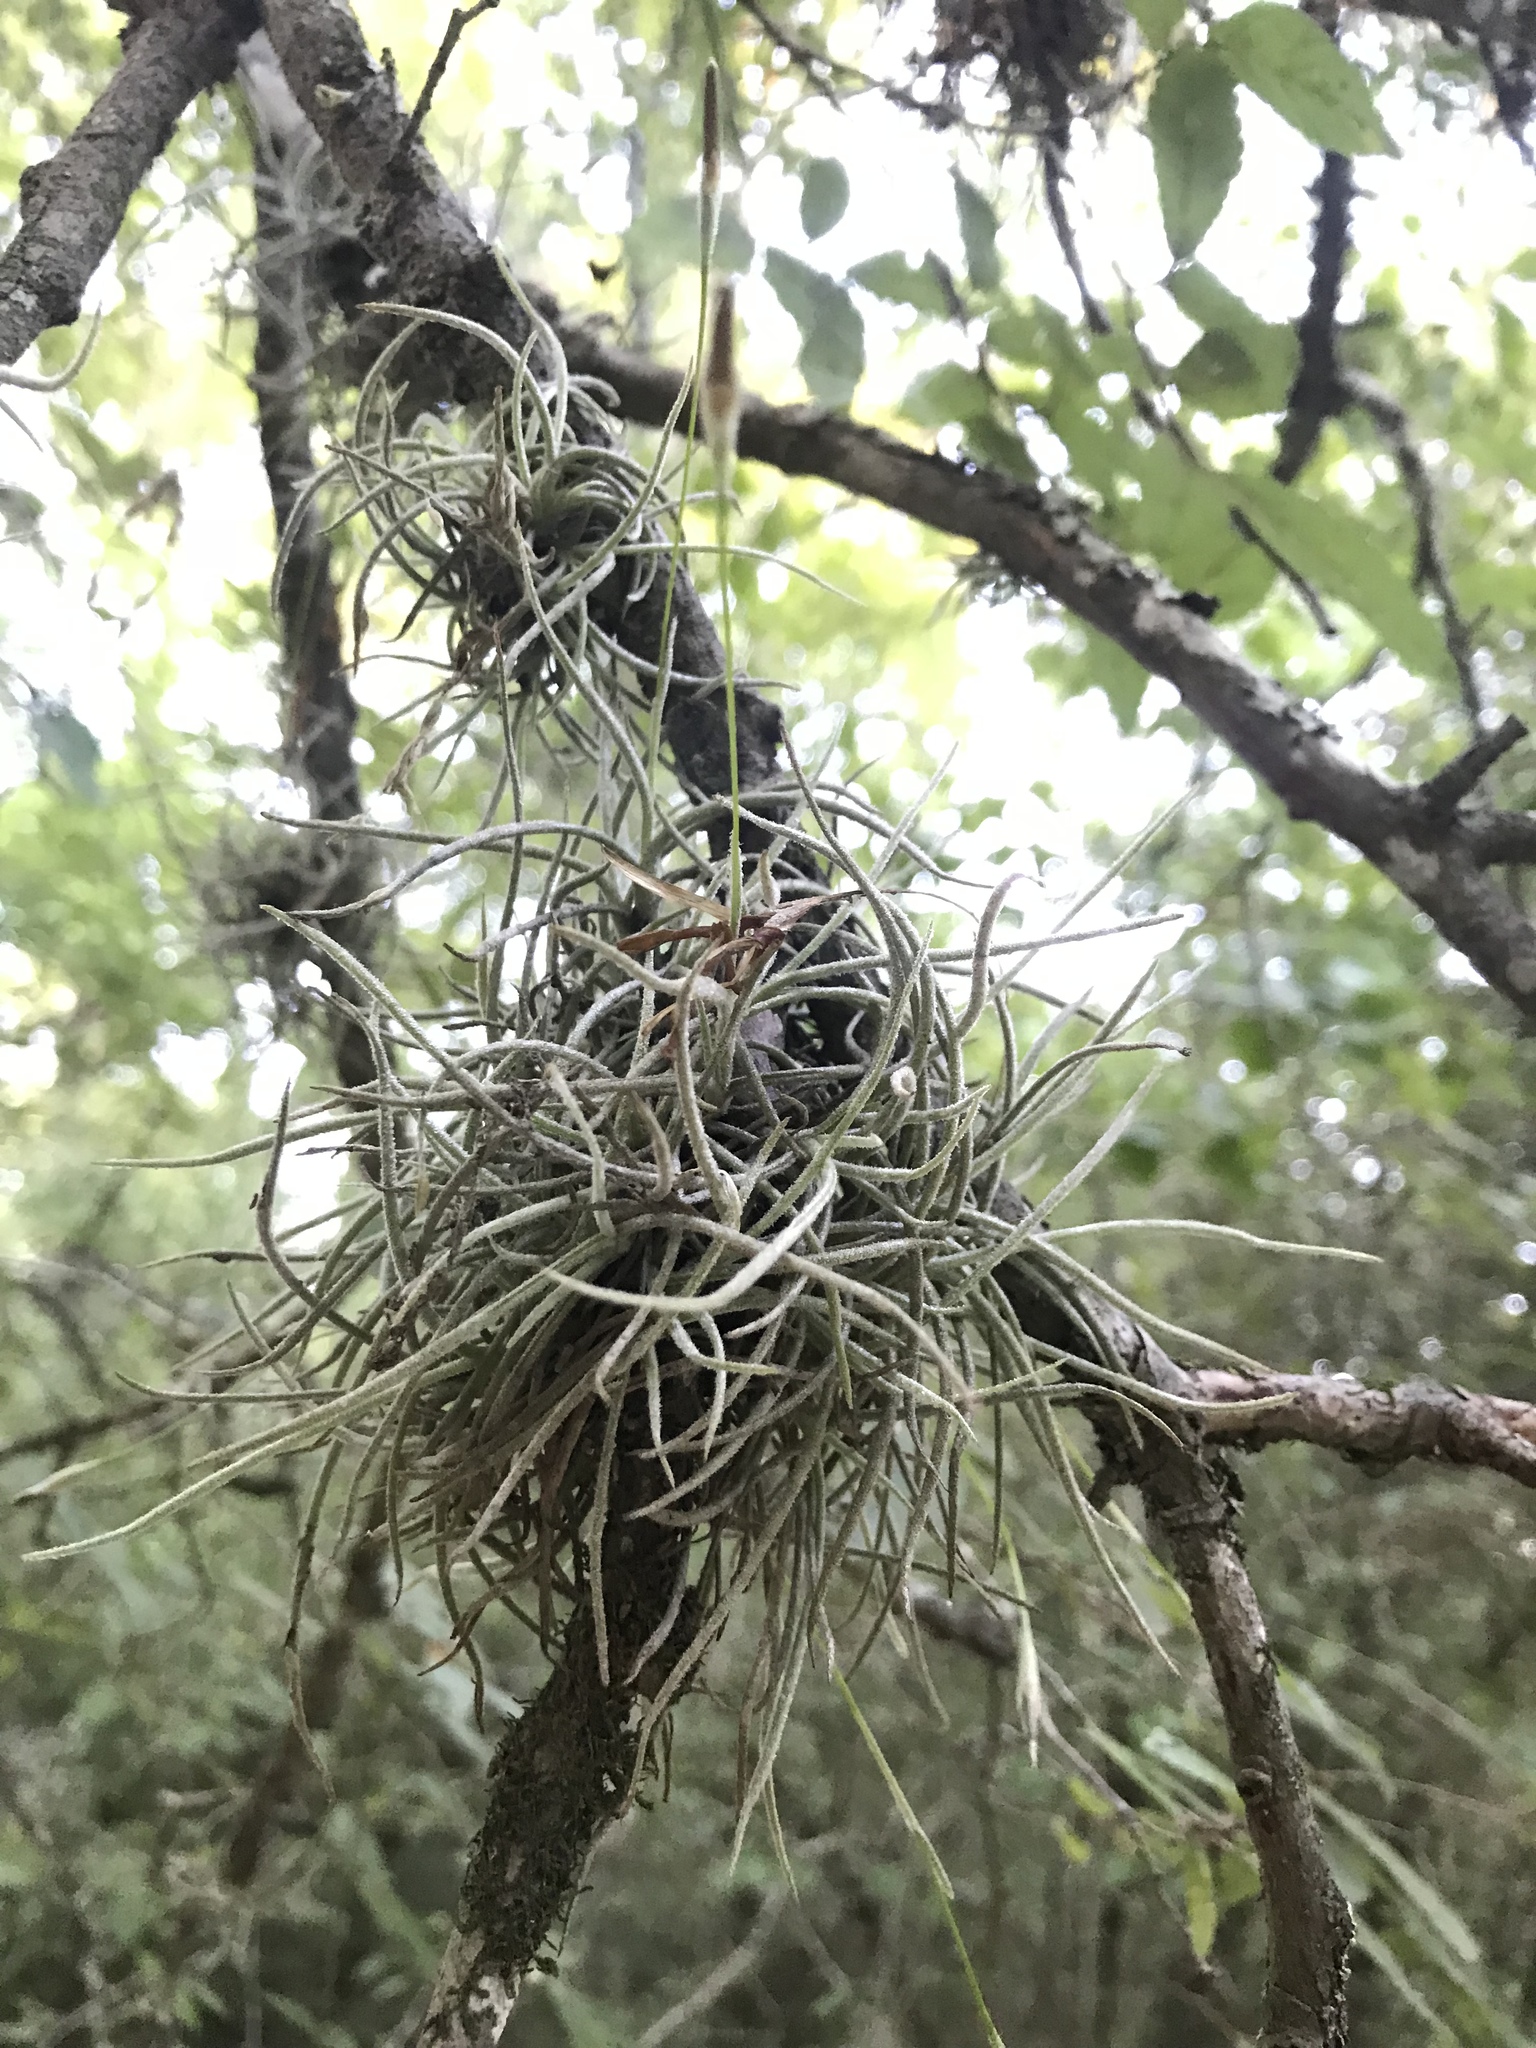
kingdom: Plantae
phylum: Tracheophyta
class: Liliopsida
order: Poales
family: Bromeliaceae
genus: Tillandsia
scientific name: Tillandsia recurvata
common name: Small ballmoss
